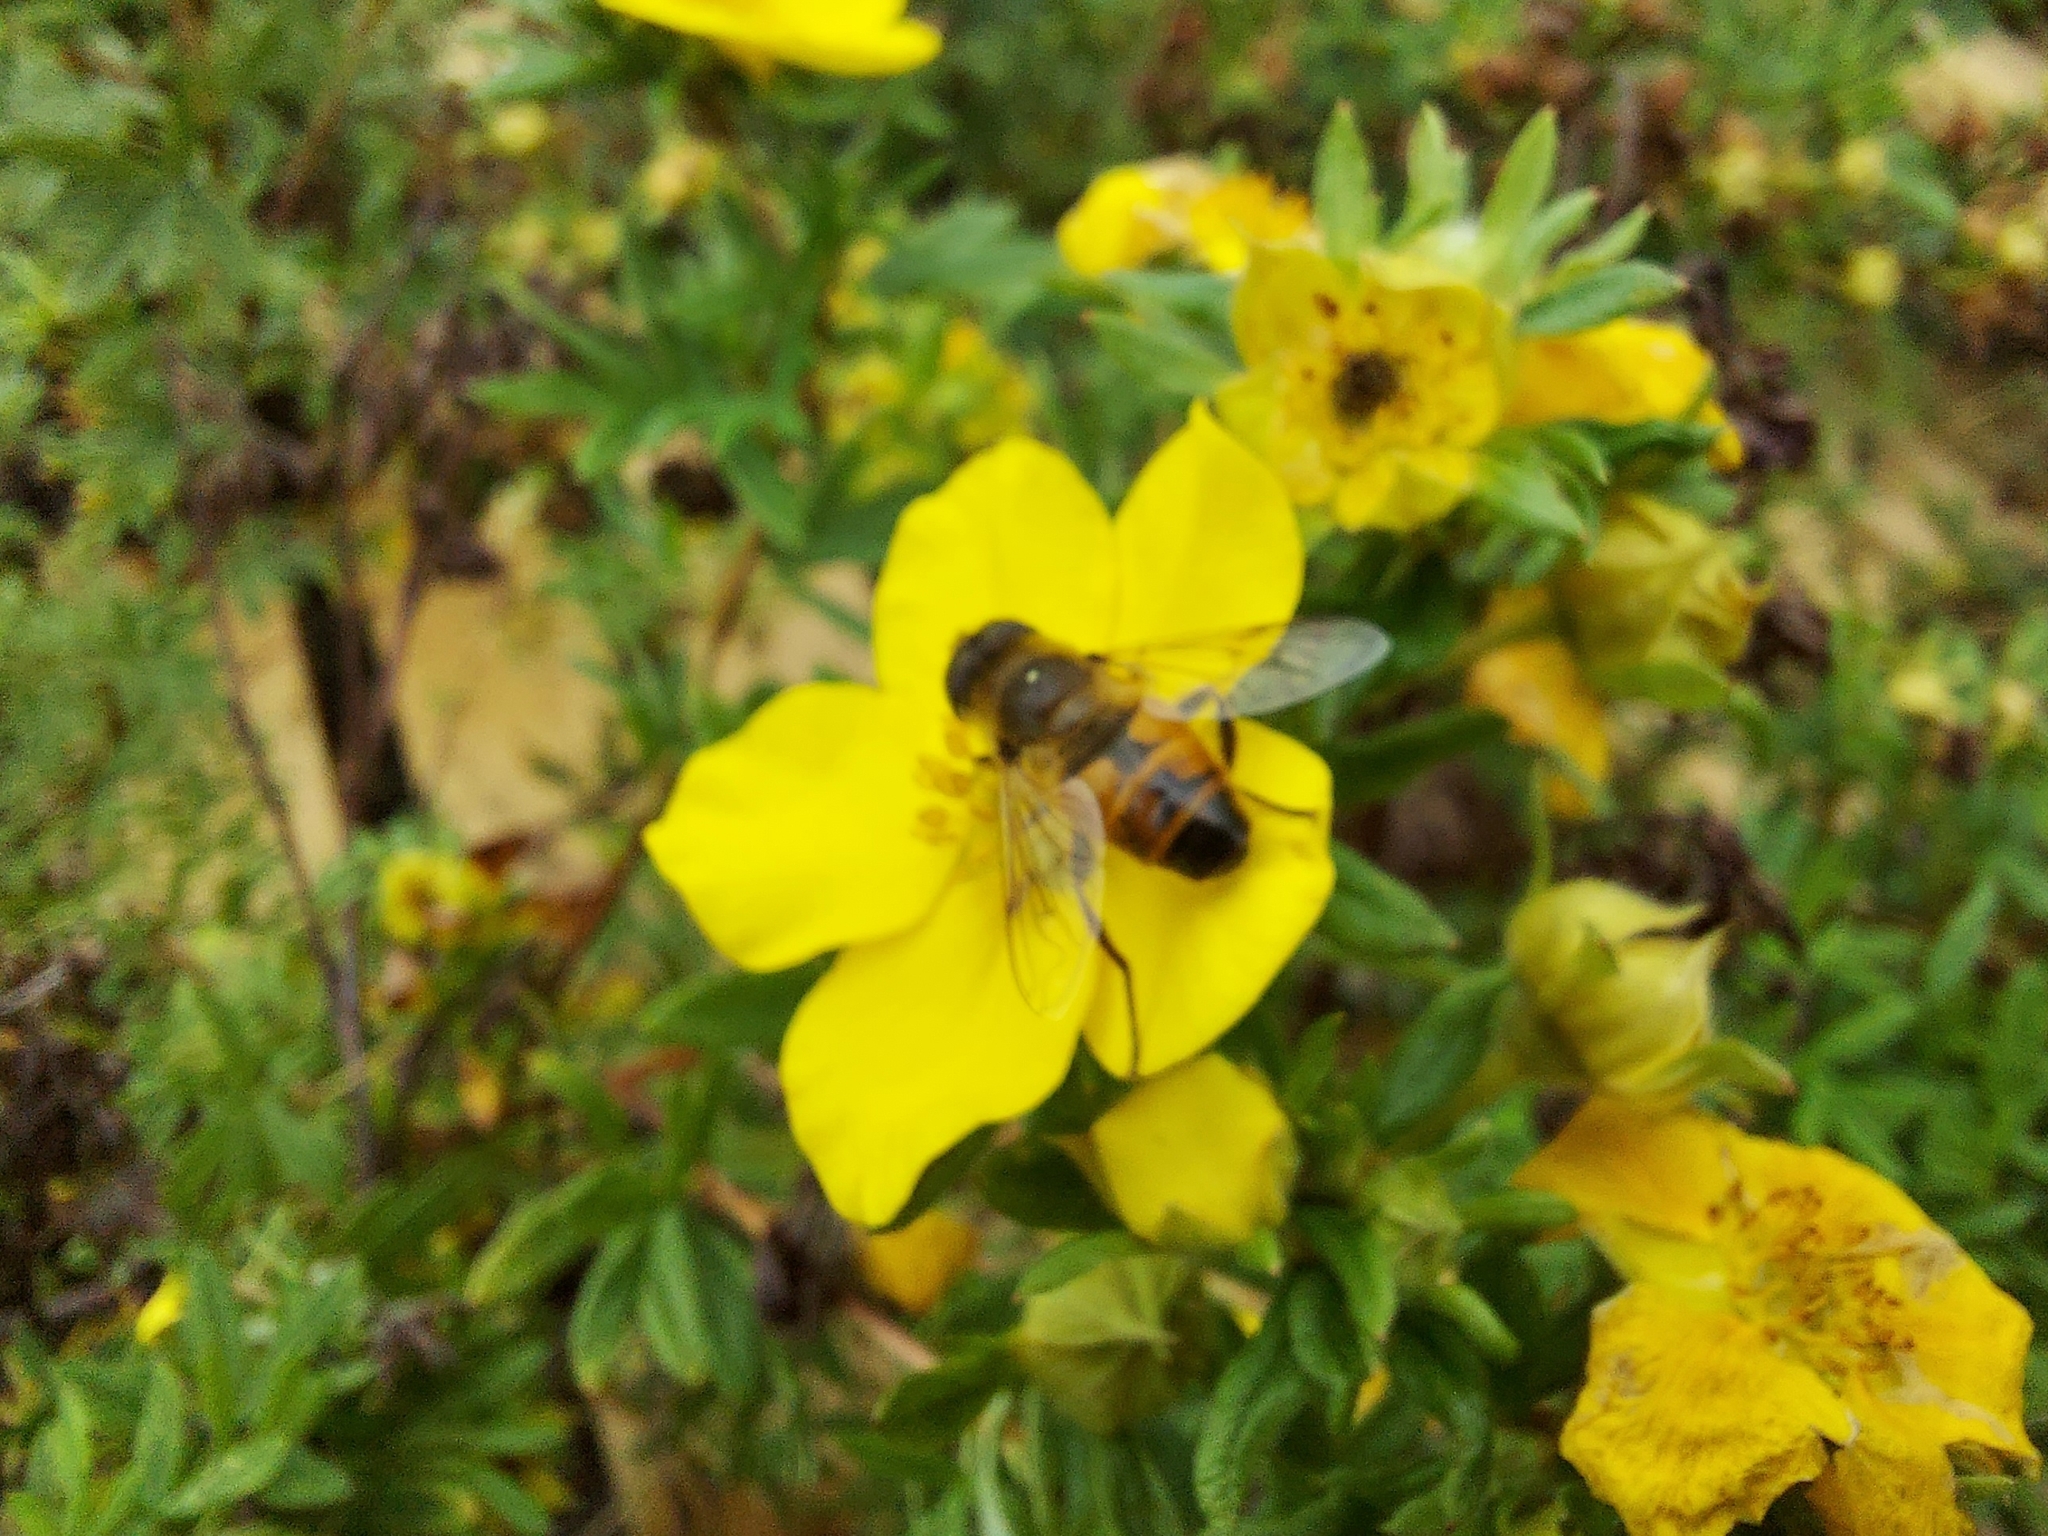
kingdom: Animalia
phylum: Arthropoda
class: Insecta
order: Diptera
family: Syrphidae
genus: Eristalis
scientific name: Eristalis tenax
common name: Drone fly
